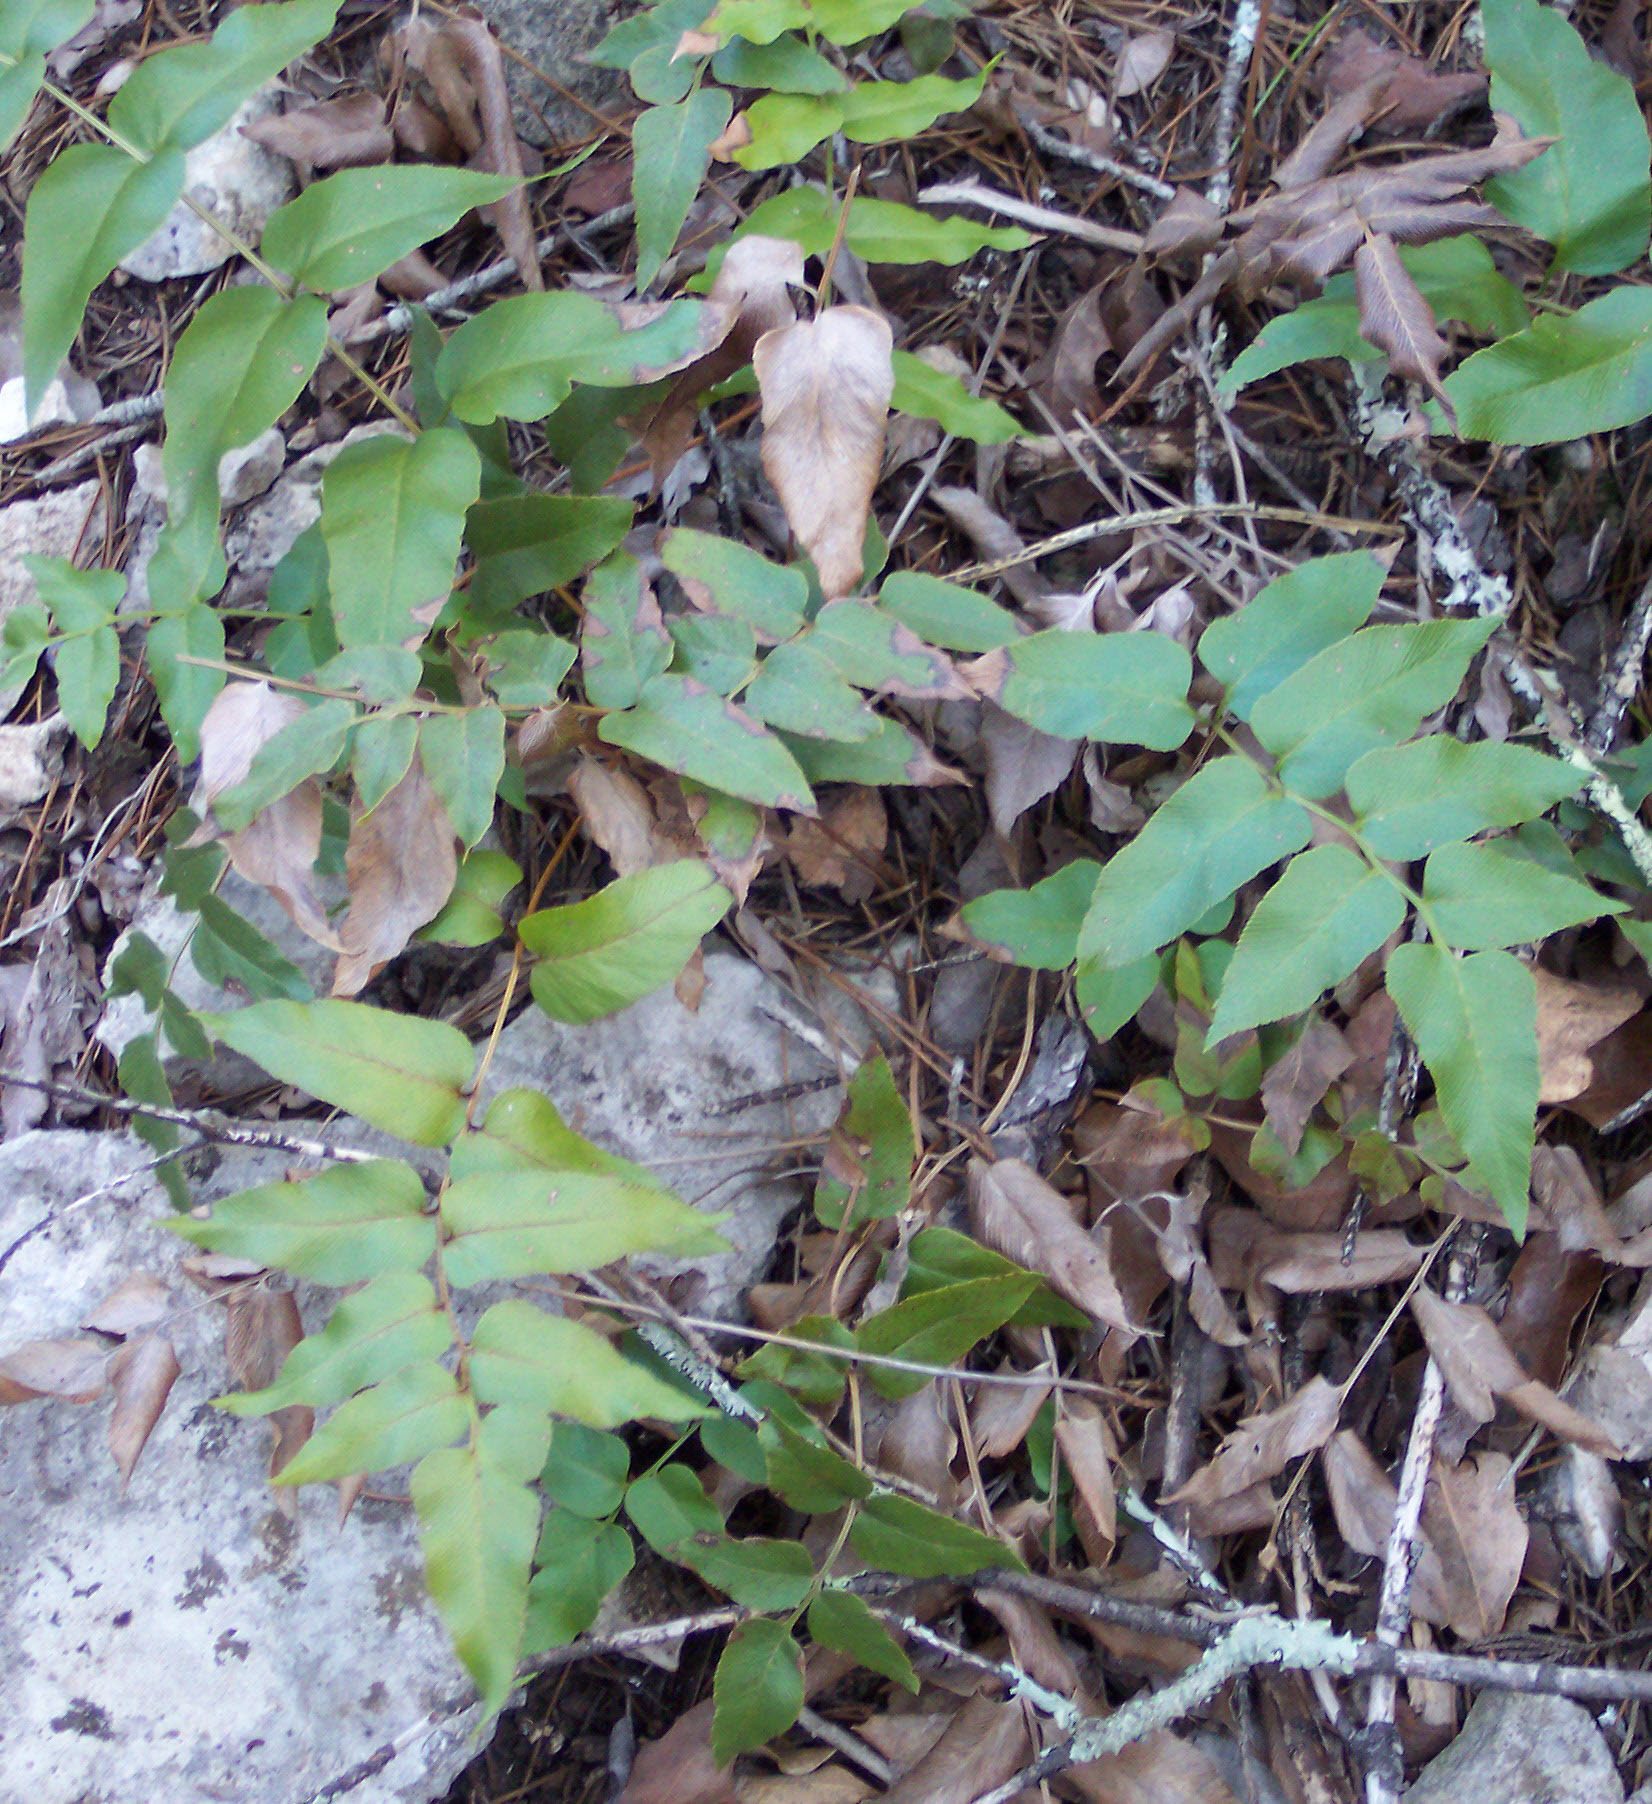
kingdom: Plantae
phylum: Tracheophyta
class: Polypodiopsida
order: Schizaeales
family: Anemiaceae
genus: Anemia
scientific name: Anemia mexicana
